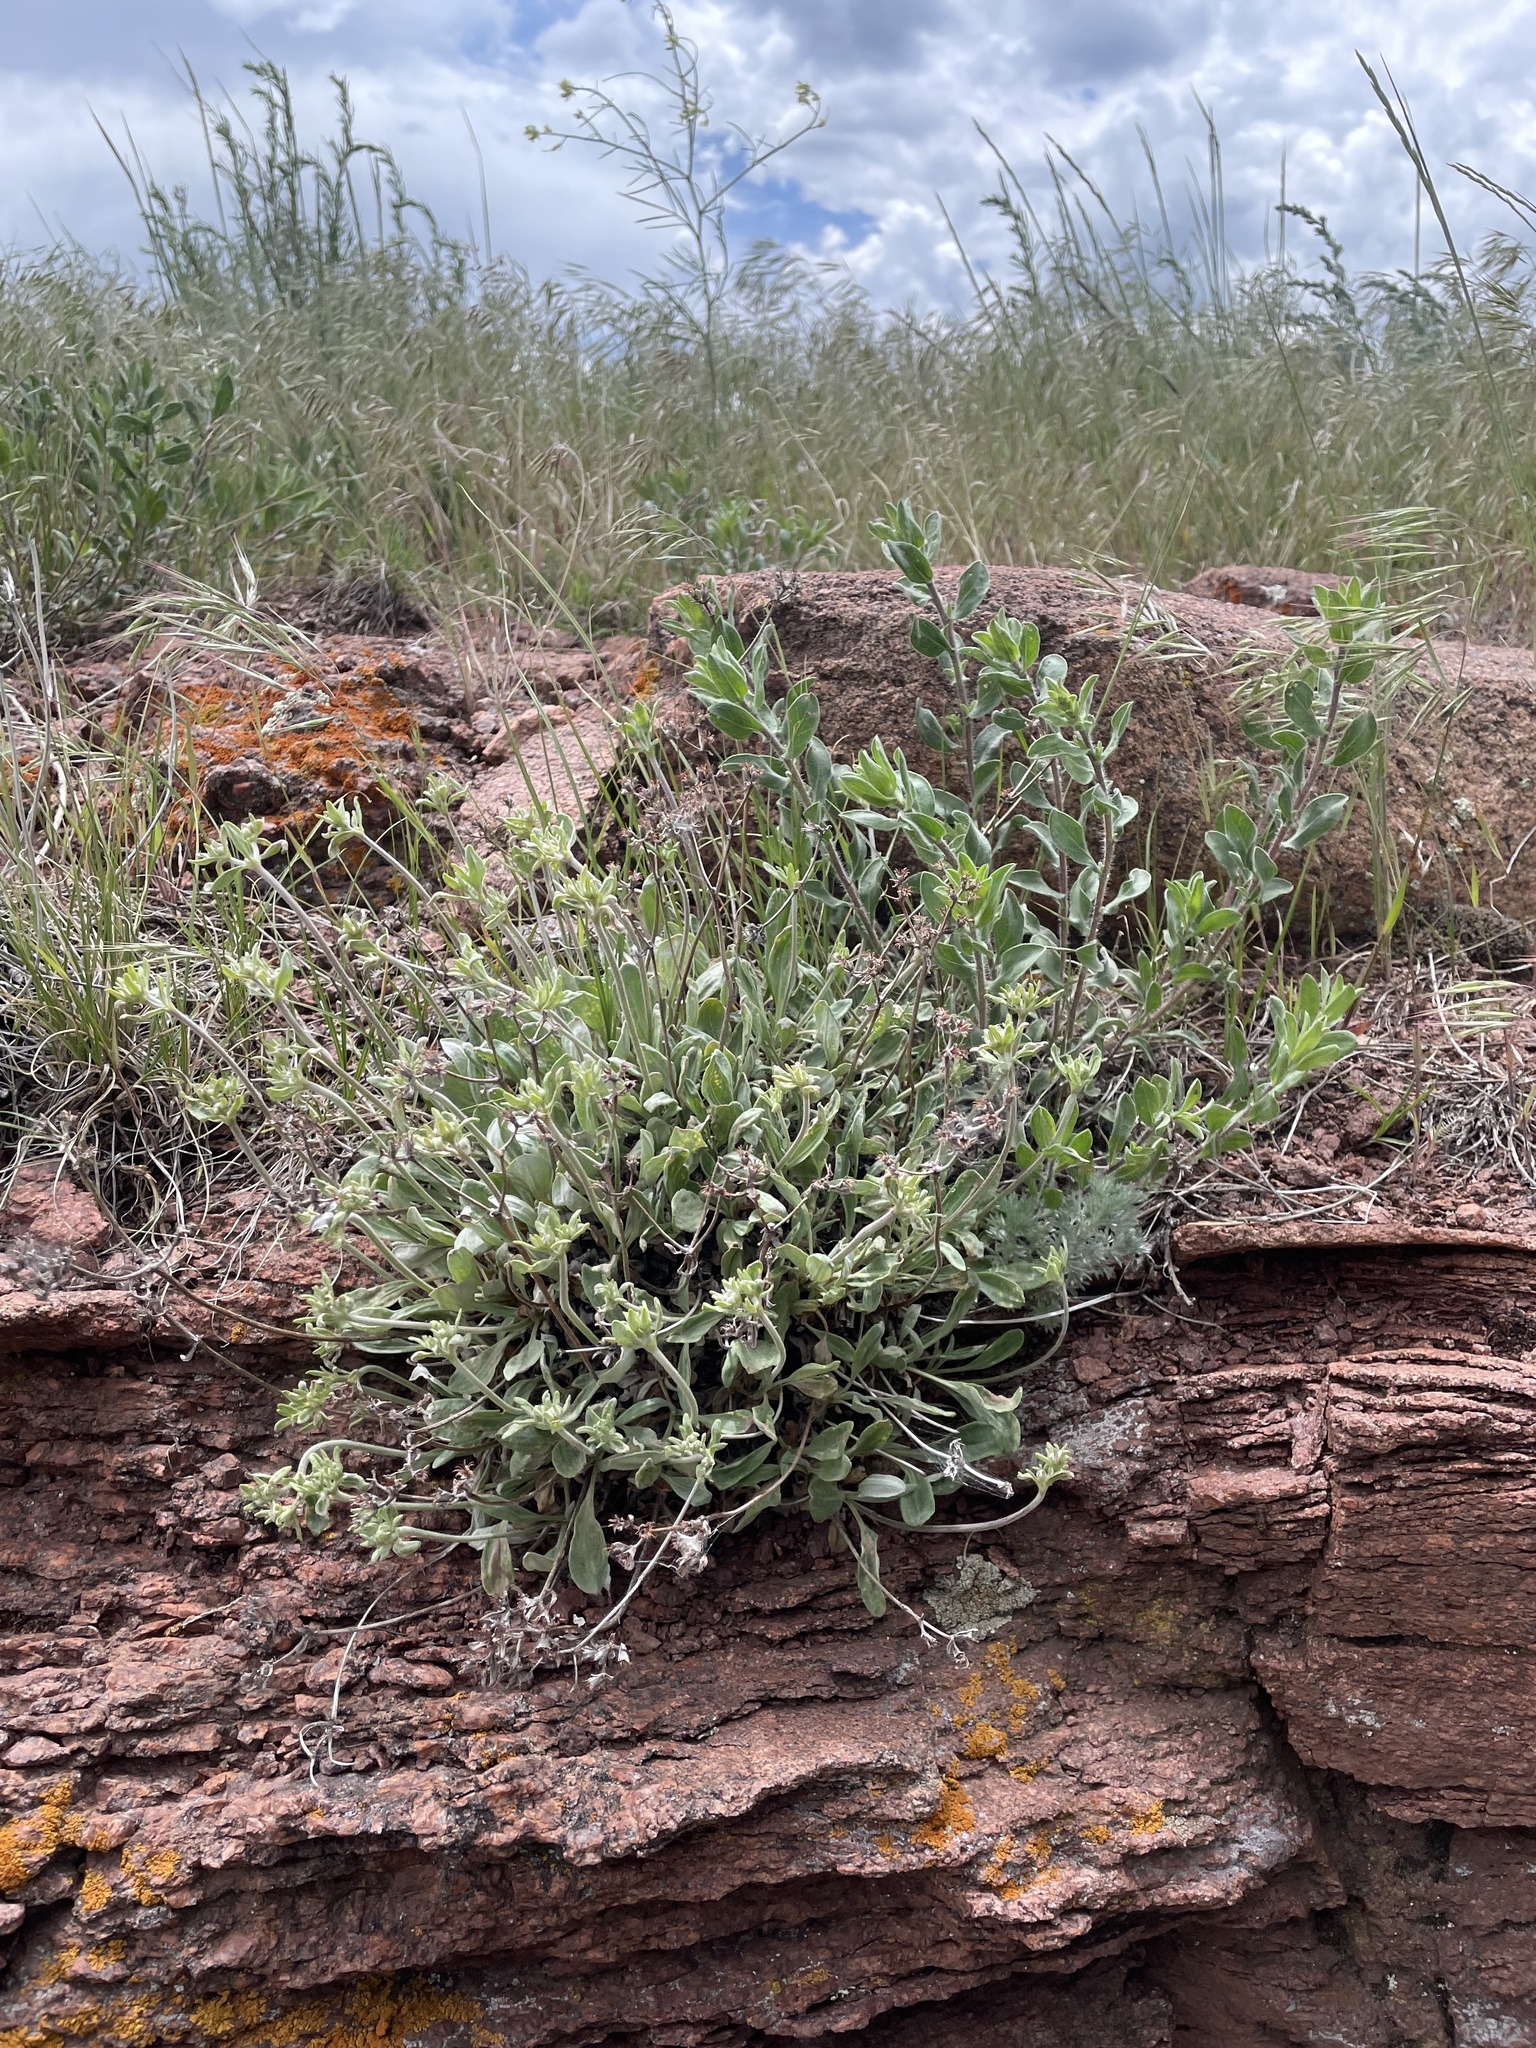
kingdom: Plantae
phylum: Tracheophyta
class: Magnoliopsida
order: Caryophyllales
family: Polygonaceae
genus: Eriogonum
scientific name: Eriogonum umbellatum
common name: Sulfur-buckwheat
